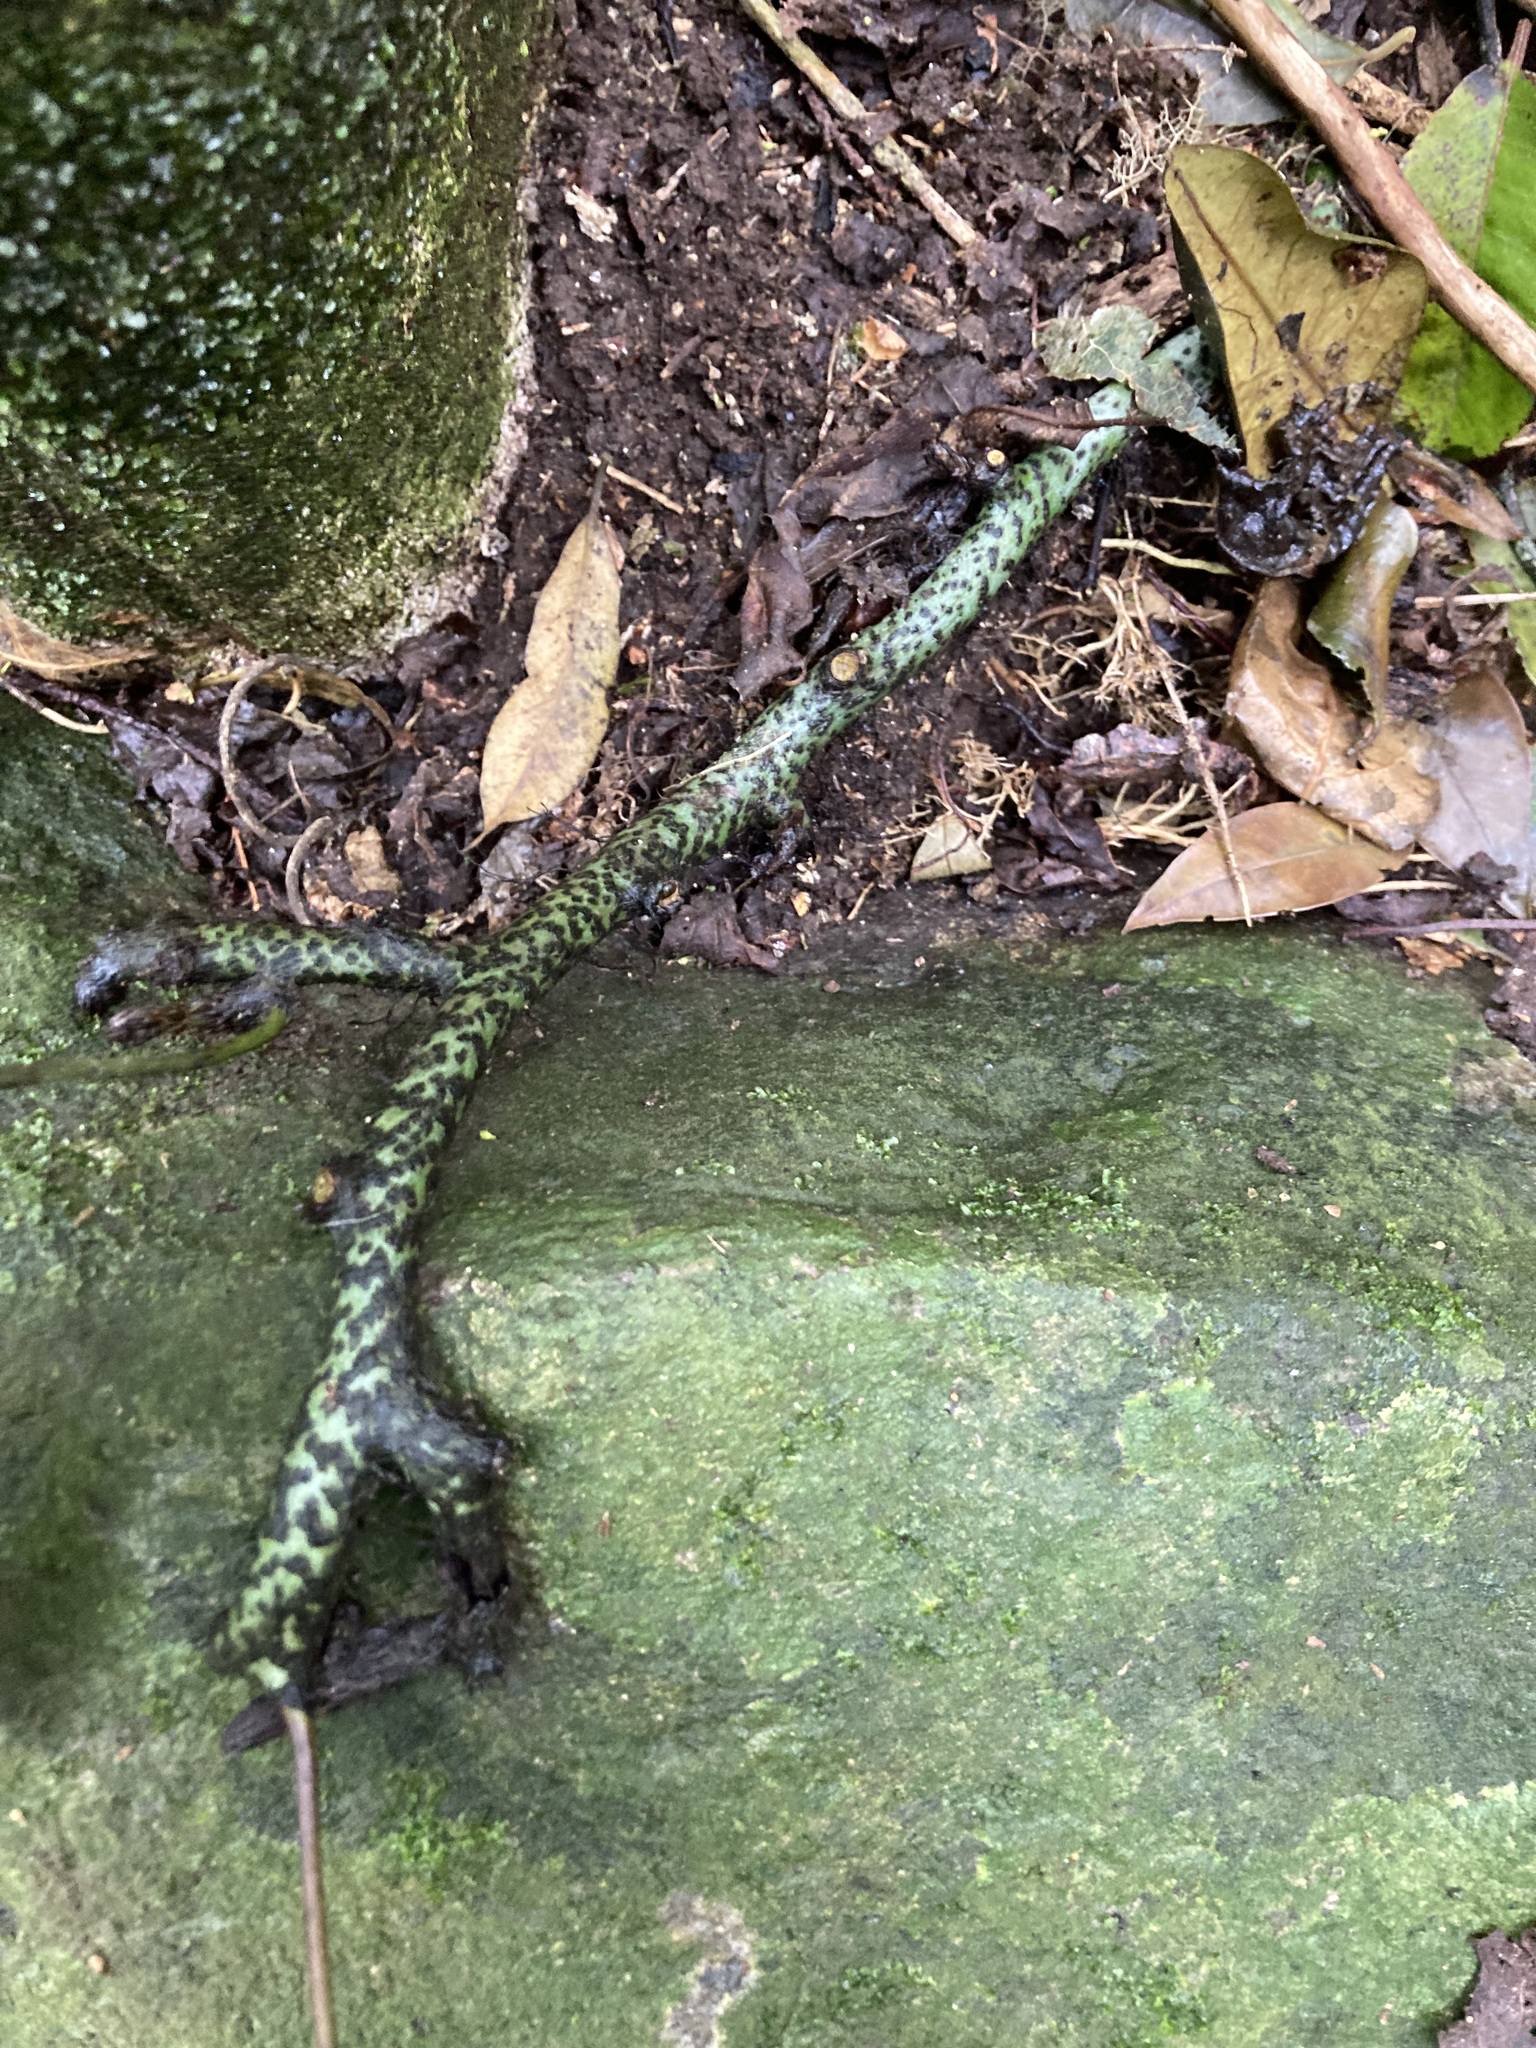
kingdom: Plantae
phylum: Tracheophyta
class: Polypodiopsida
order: Polypodiales
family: Polypodiaceae
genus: Lecanopteris
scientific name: Lecanopteris pustulata
